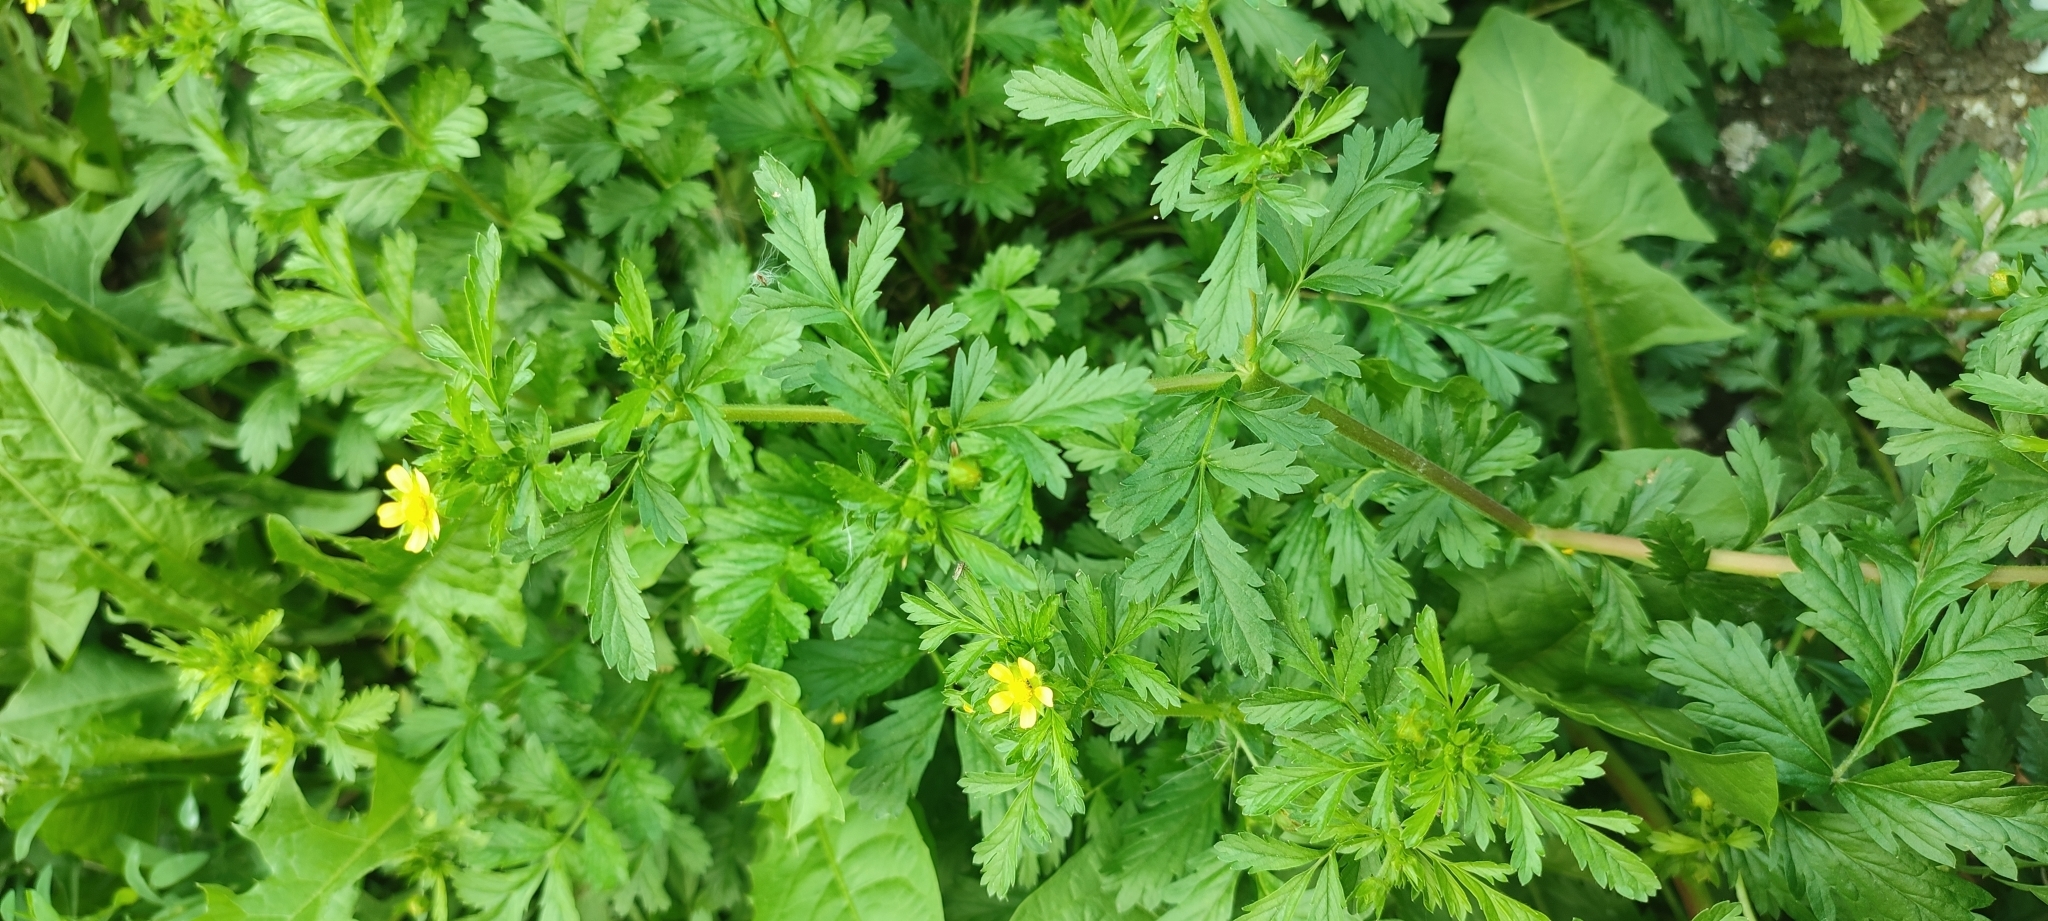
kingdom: Plantae
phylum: Tracheophyta
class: Magnoliopsida
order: Rosales
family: Rosaceae
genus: Potentilla
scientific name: Potentilla supina
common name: Prostrate cinquefoil
